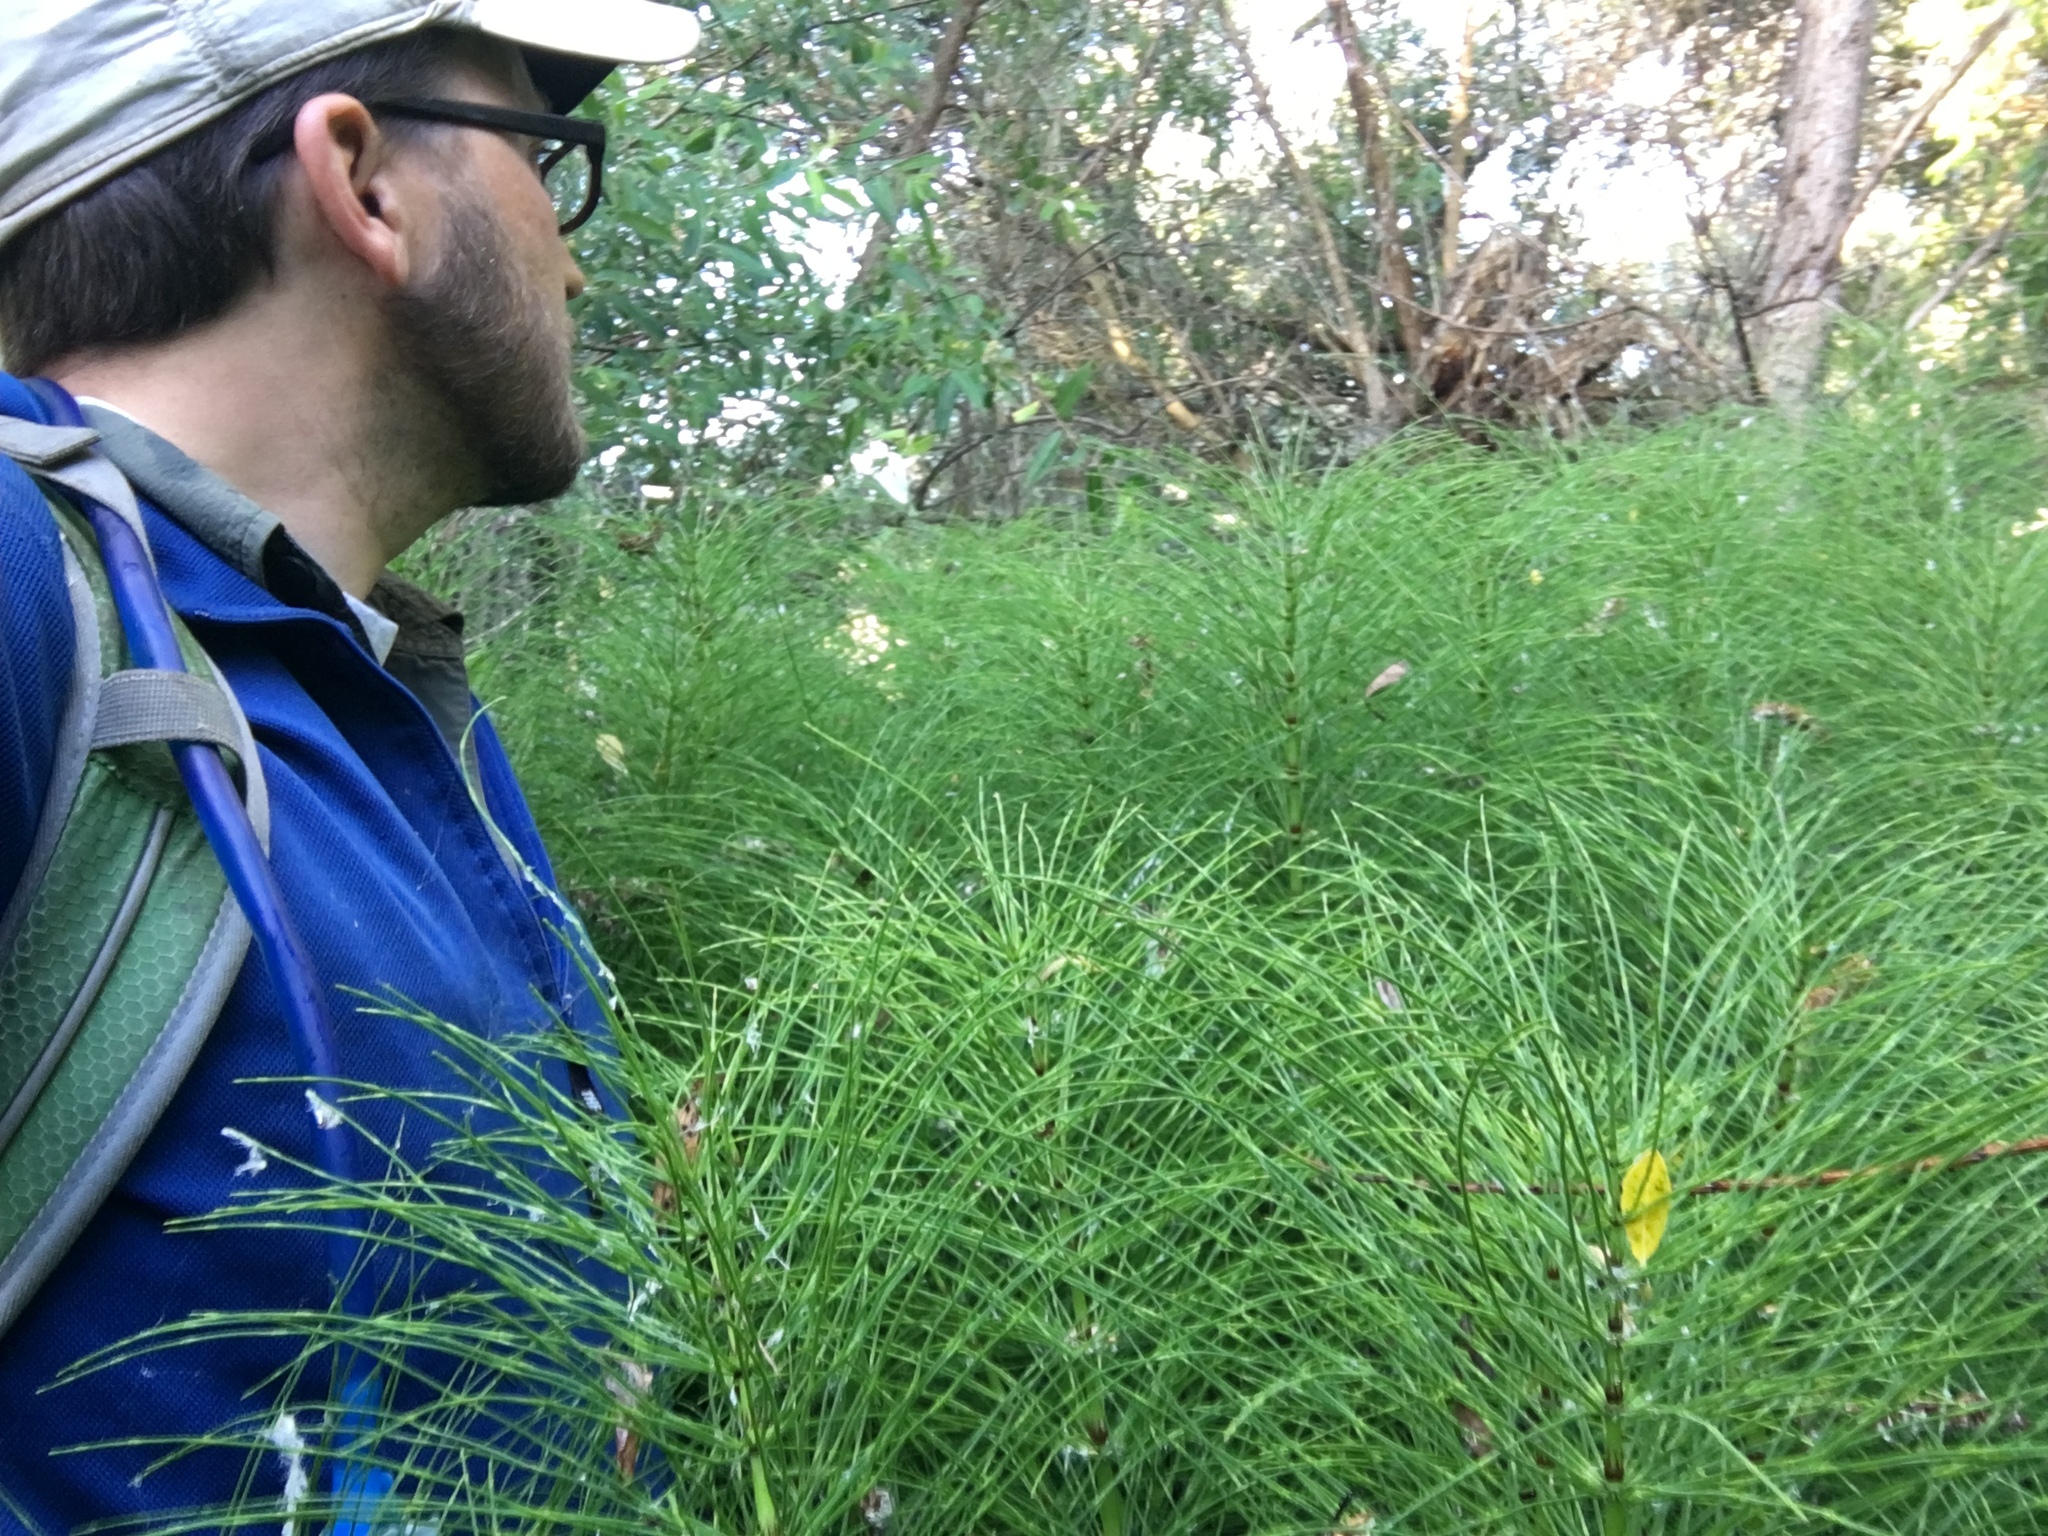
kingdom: Plantae
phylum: Tracheophyta
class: Polypodiopsida
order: Equisetales
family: Equisetaceae
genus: Equisetum
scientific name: Equisetum braunii
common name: Braun's horsetail
